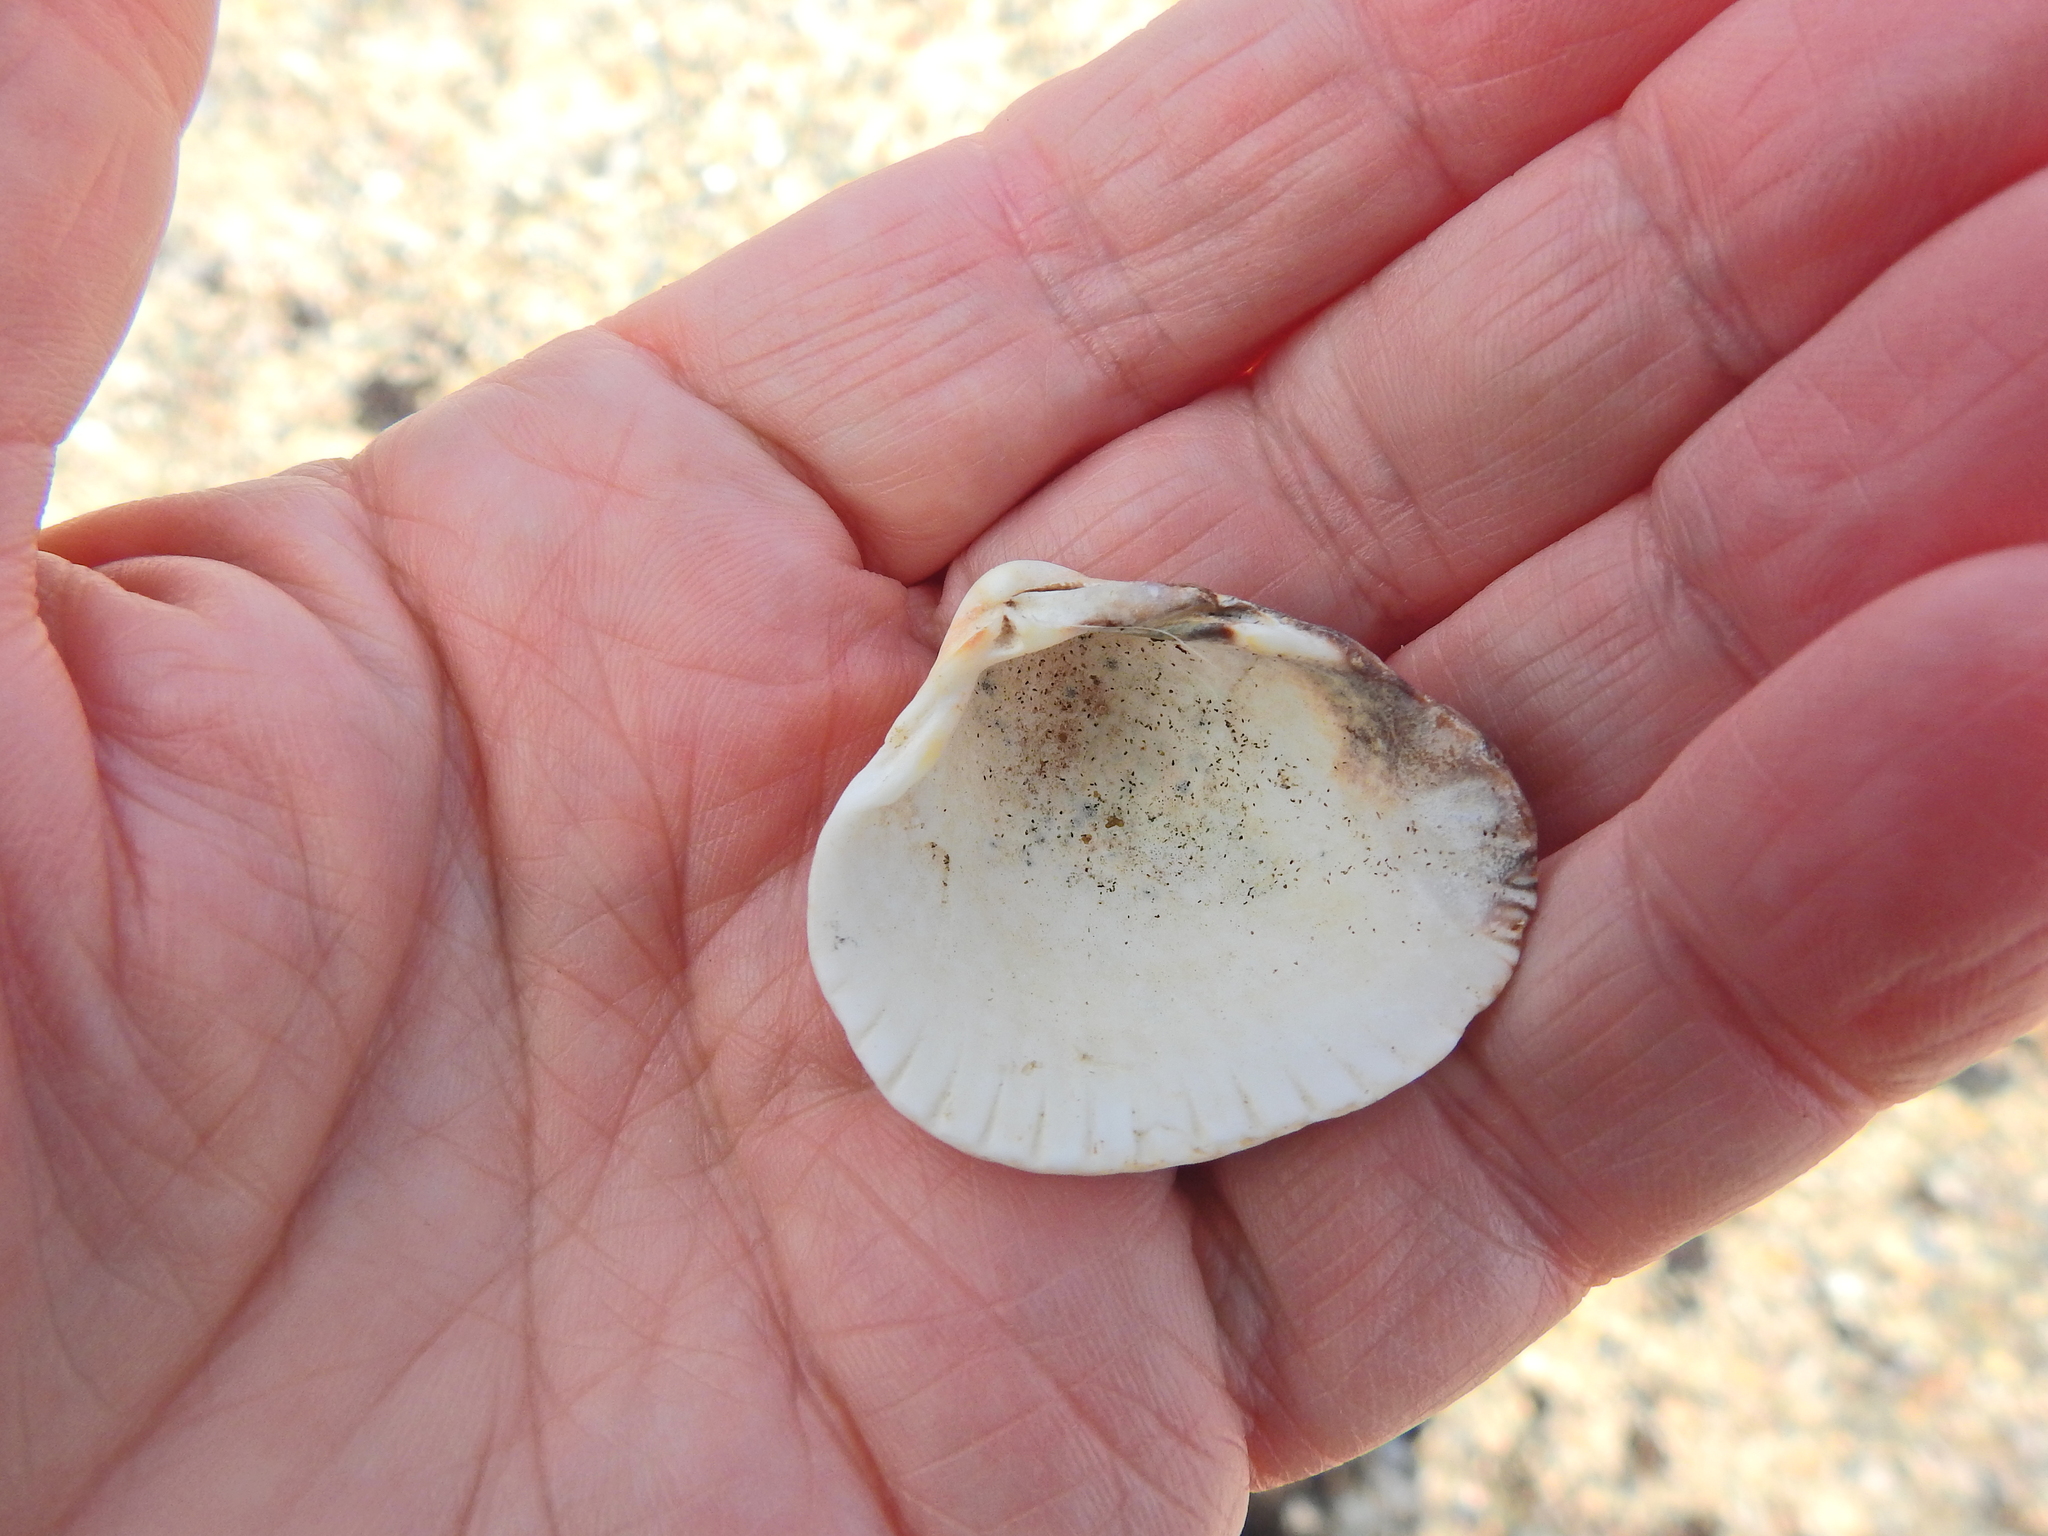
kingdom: Animalia
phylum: Mollusca
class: Bivalvia
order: Cardiida
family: Cardiidae
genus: Cerastoderma
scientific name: Cerastoderma edule
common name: Common cockle
